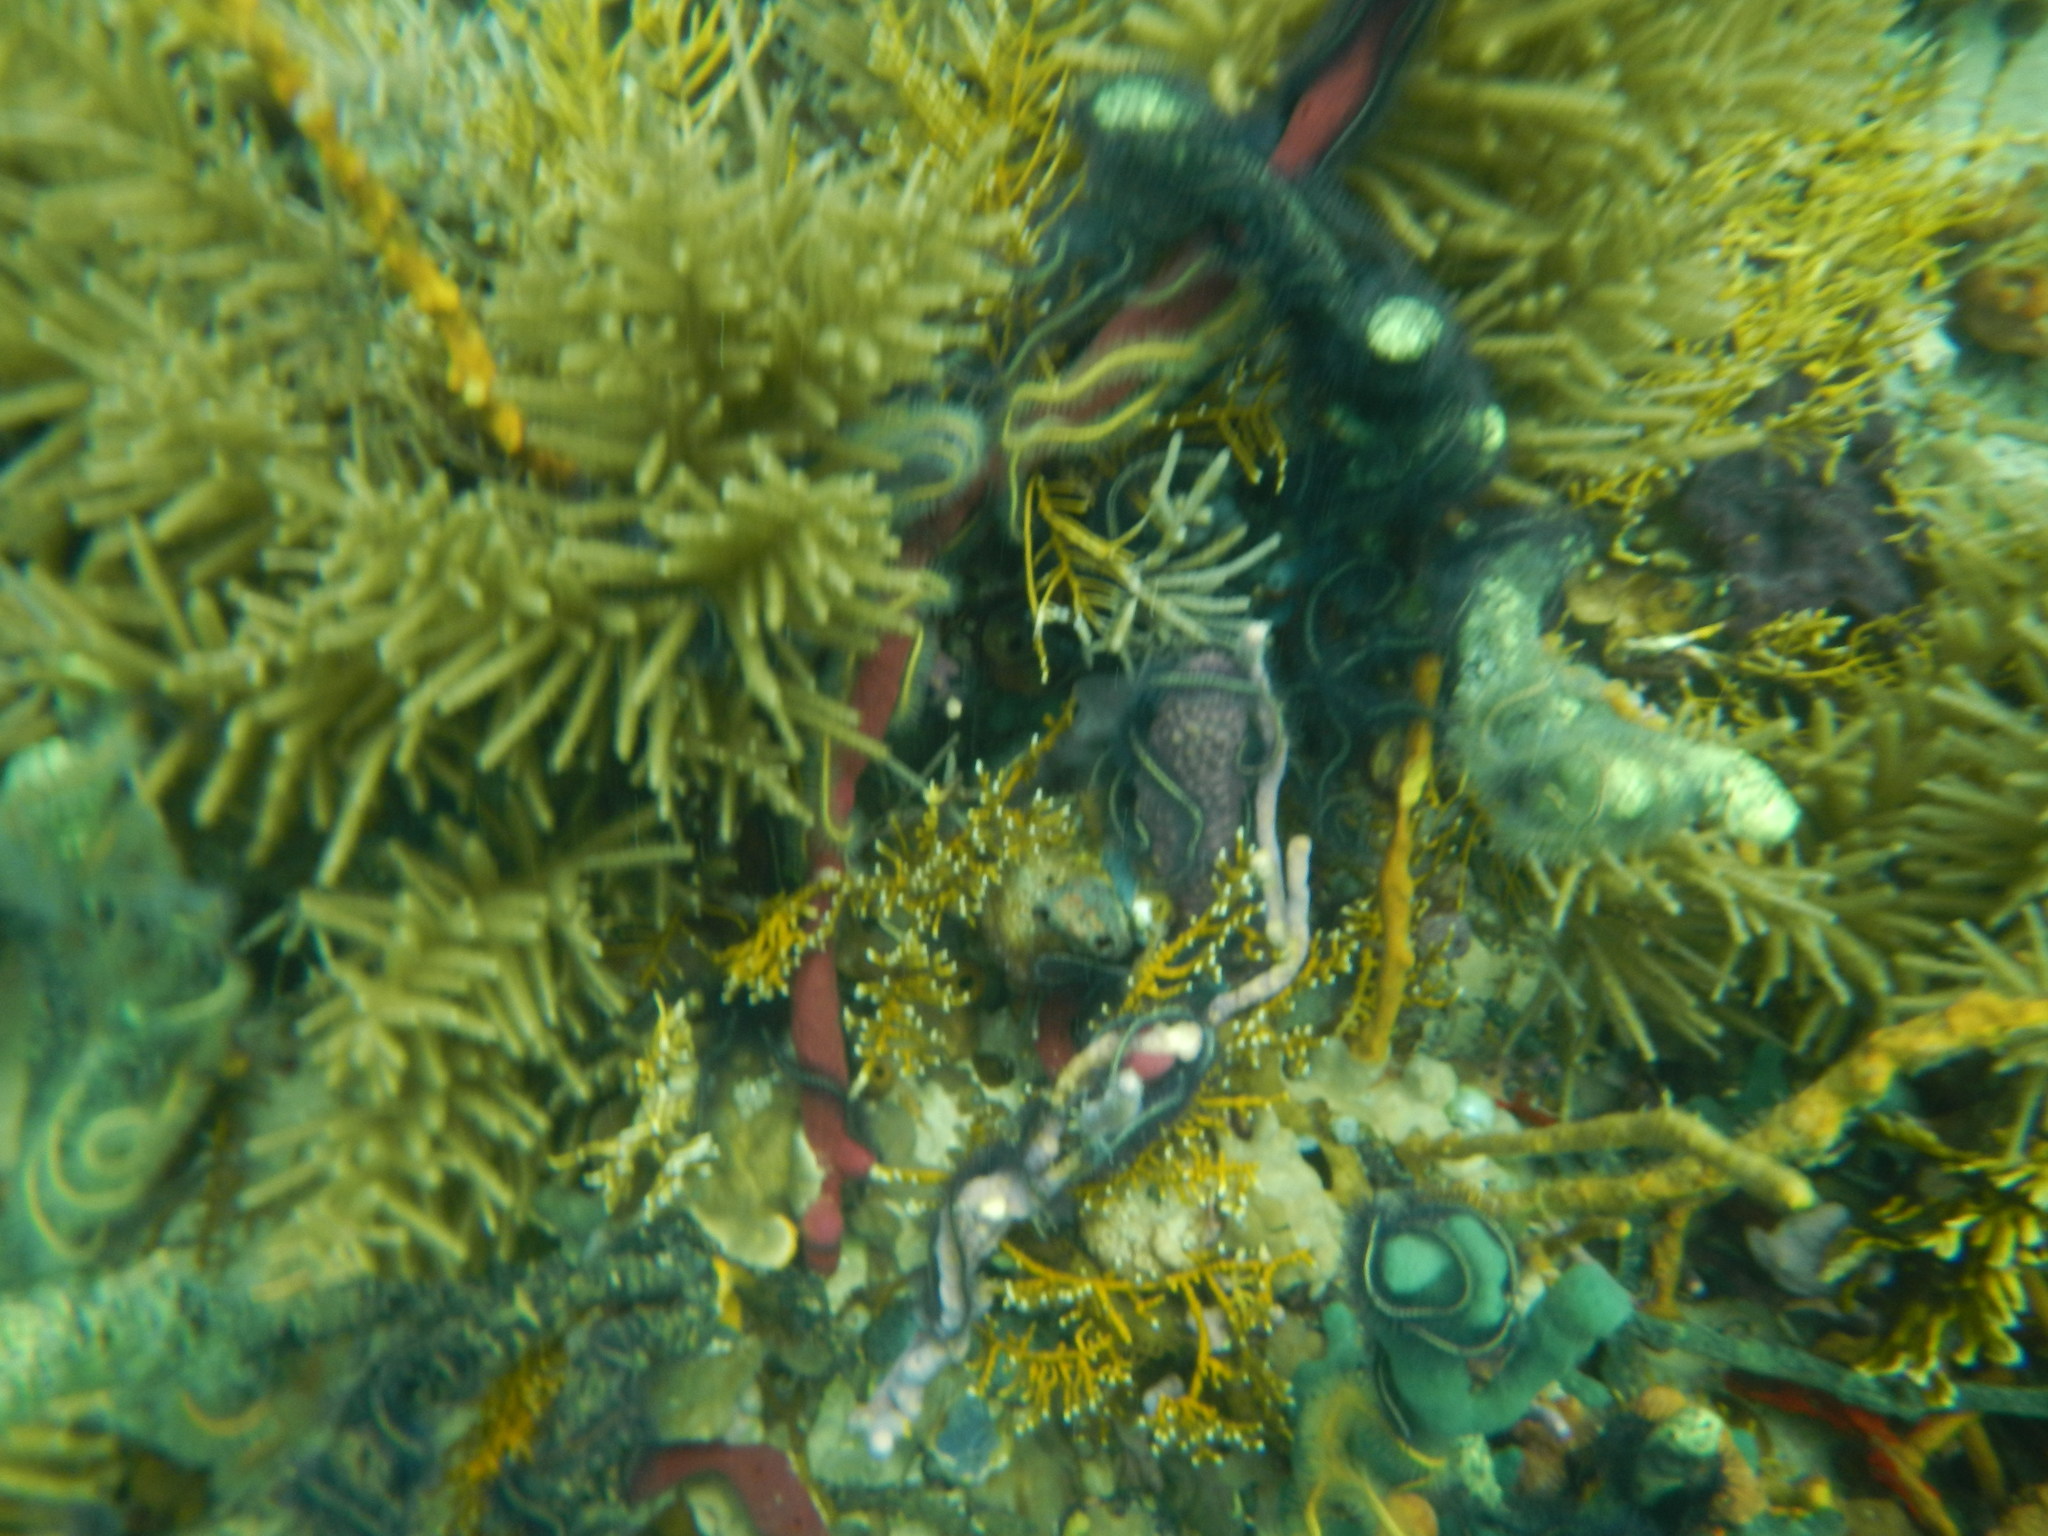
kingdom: Animalia
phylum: Echinodermata
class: Ophiuroidea
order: Amphilepidida
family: Ophiotrichidae
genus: Ophiothrix
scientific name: Ophiothrix suensonii
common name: Sponge brittle star
